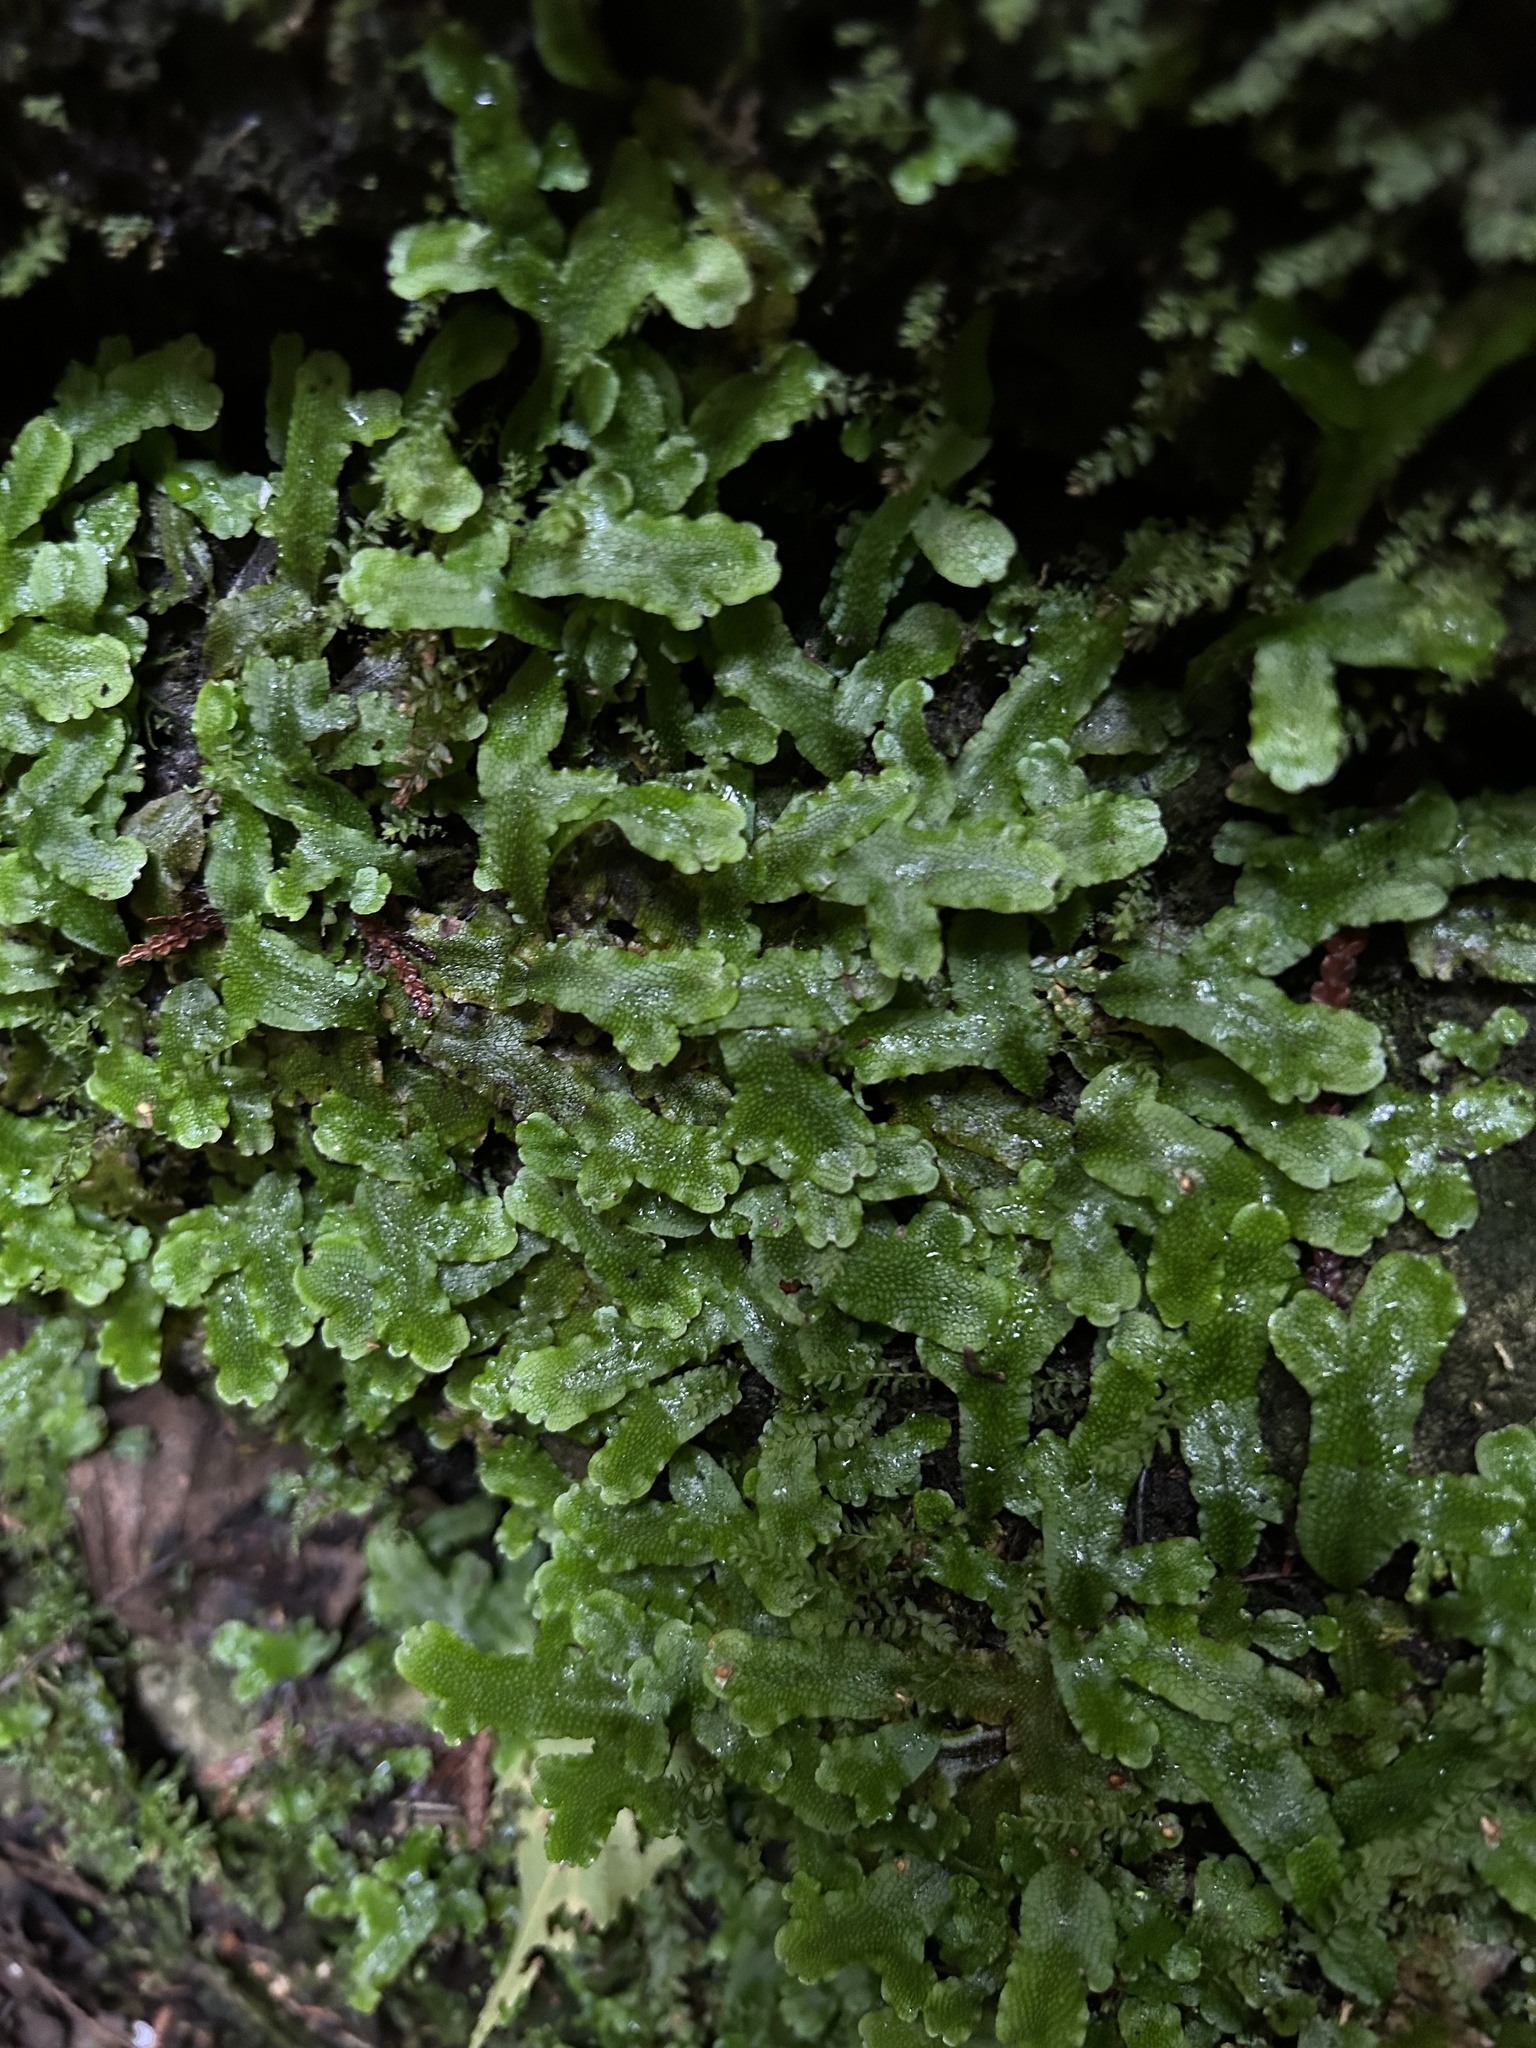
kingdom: Plantae
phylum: Marchantiophyta
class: Marchantiopsida
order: Marchantiales
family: Conocephalaceae
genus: Conocephalum
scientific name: Conocephalum salebrosum
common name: Cat-tongue liverwort
